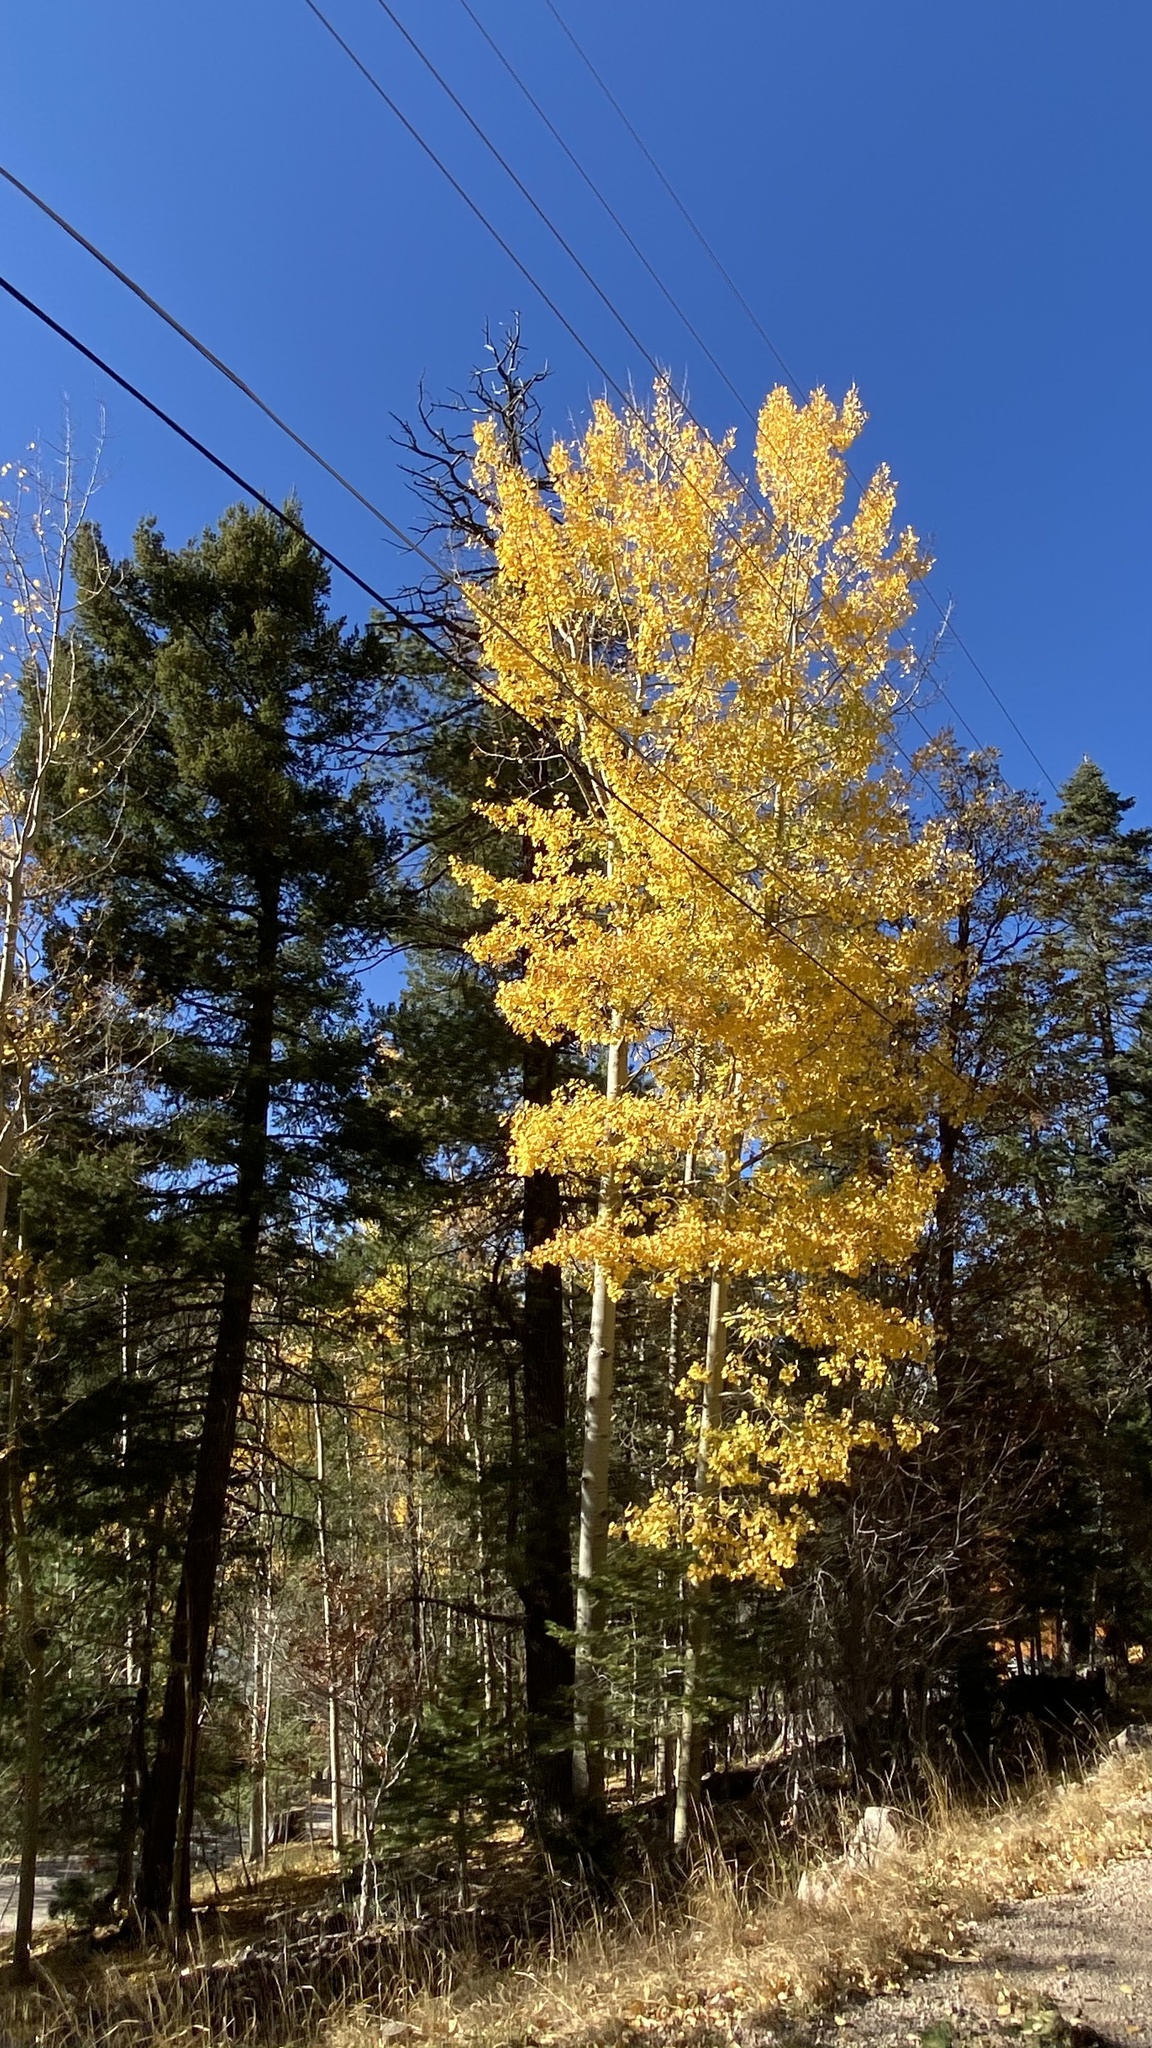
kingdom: Plantae
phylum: Tracheophyta
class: Magnoliopsida
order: Malpighiales
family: Salicaceae
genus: Populus
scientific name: Populus tremuloides
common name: Quaking aspen
